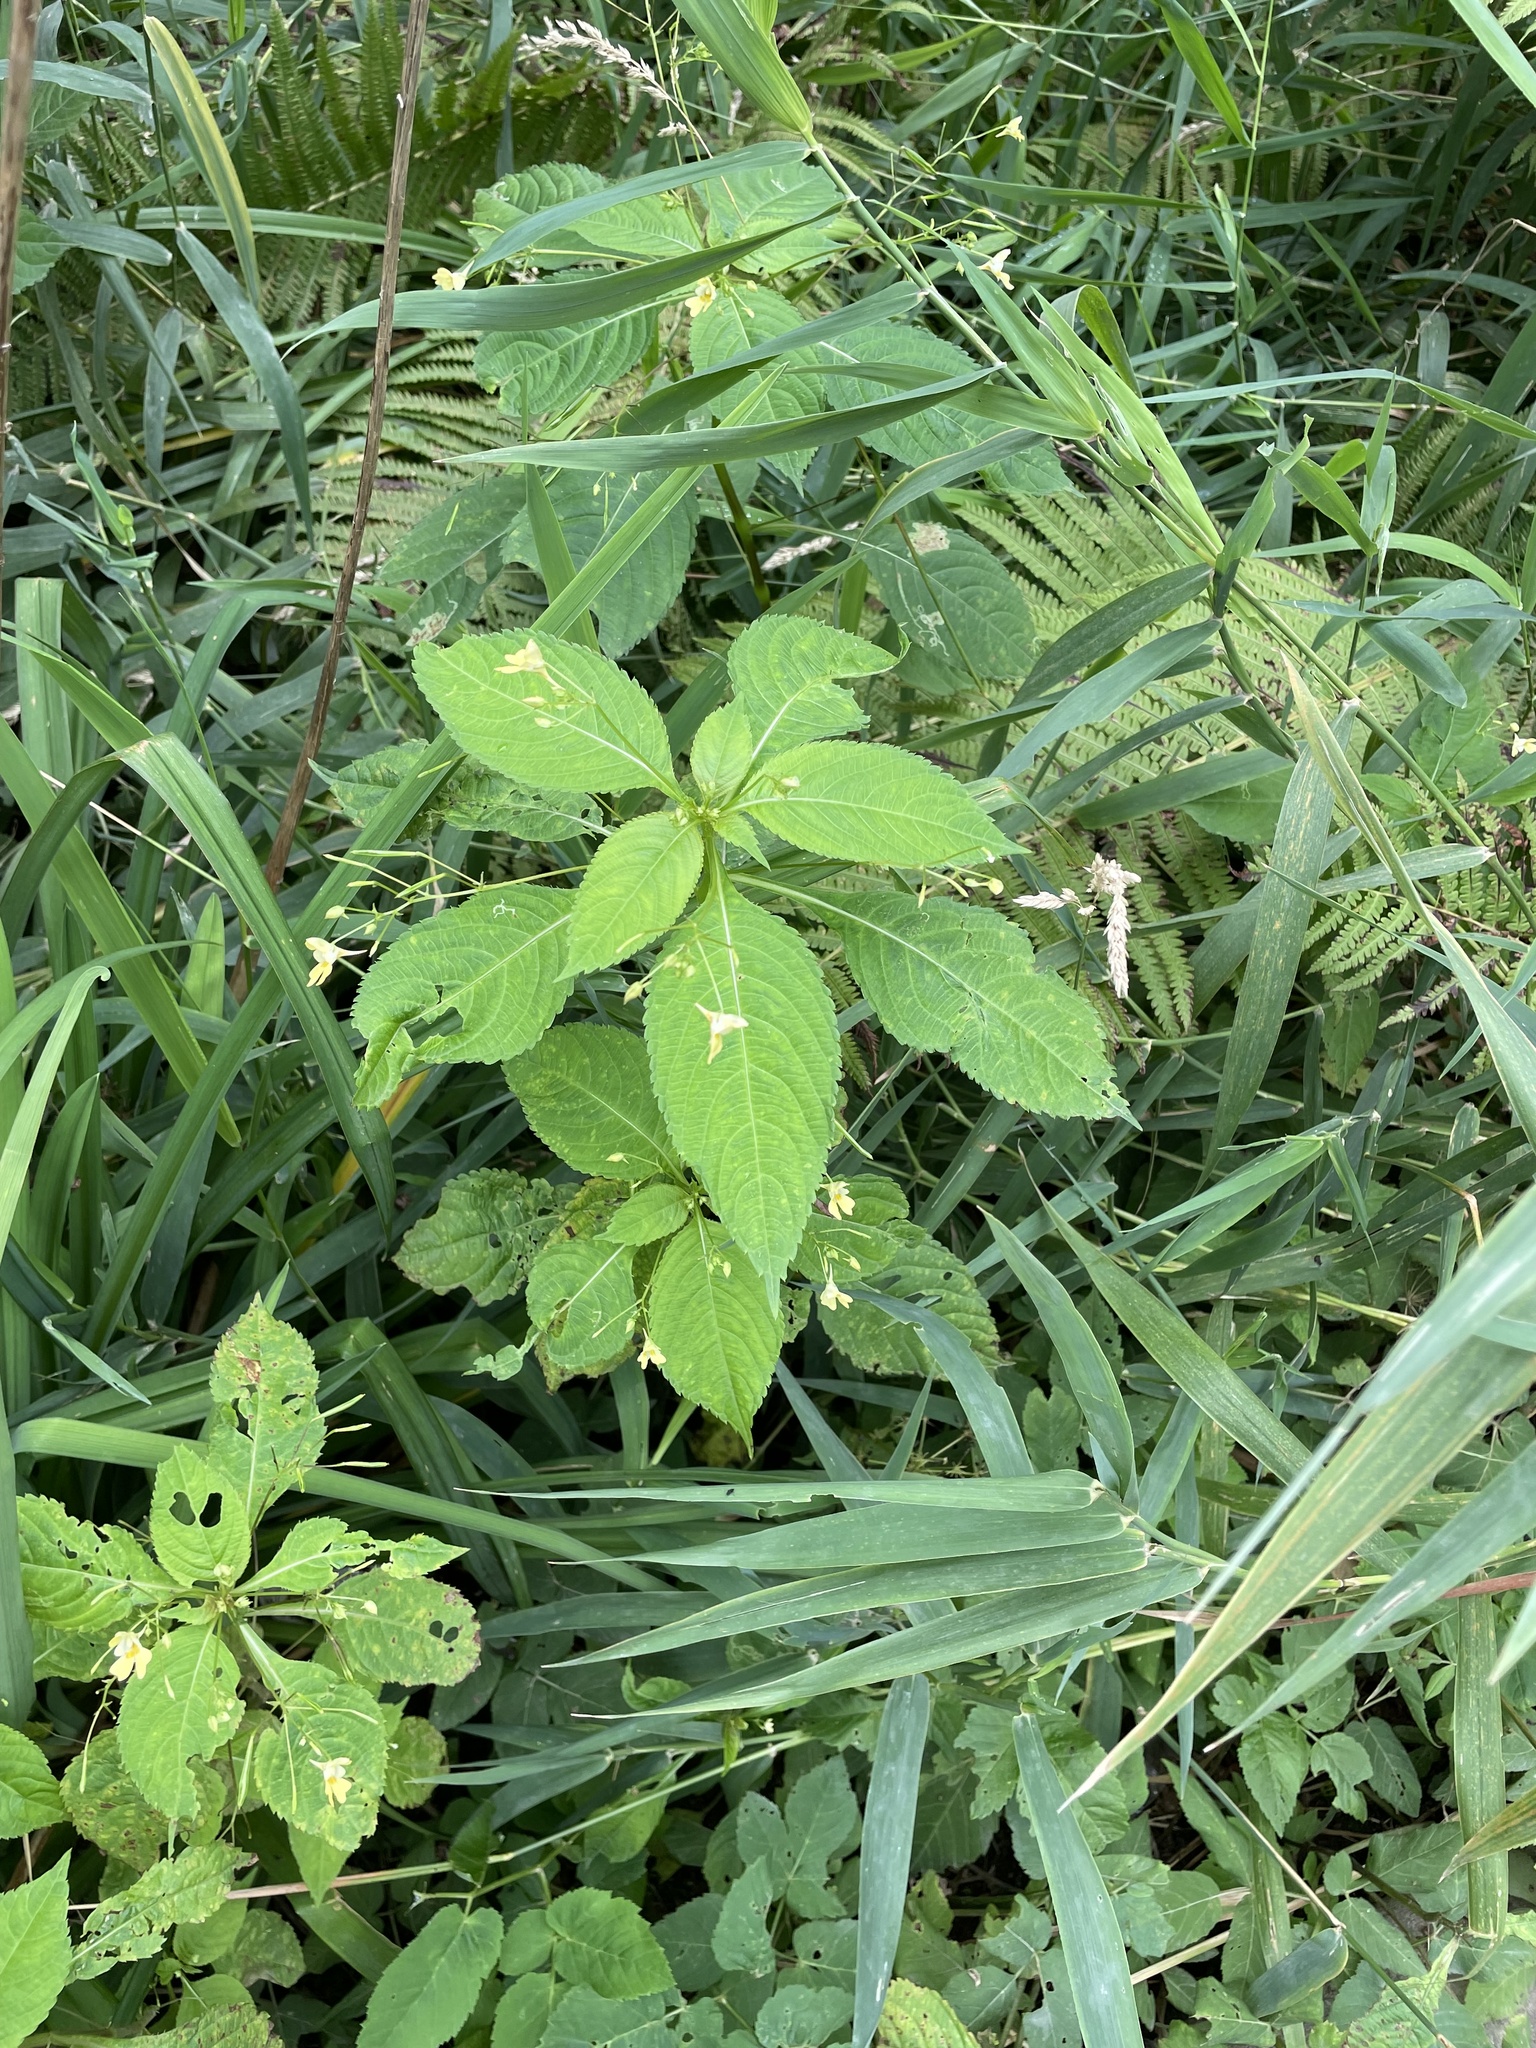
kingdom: Plantae
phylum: Tracheophyta
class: Magnoliopsida
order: Ericales
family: Balsaminaceae
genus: Impatiens
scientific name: Impatiens parviflora
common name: Small balsam
